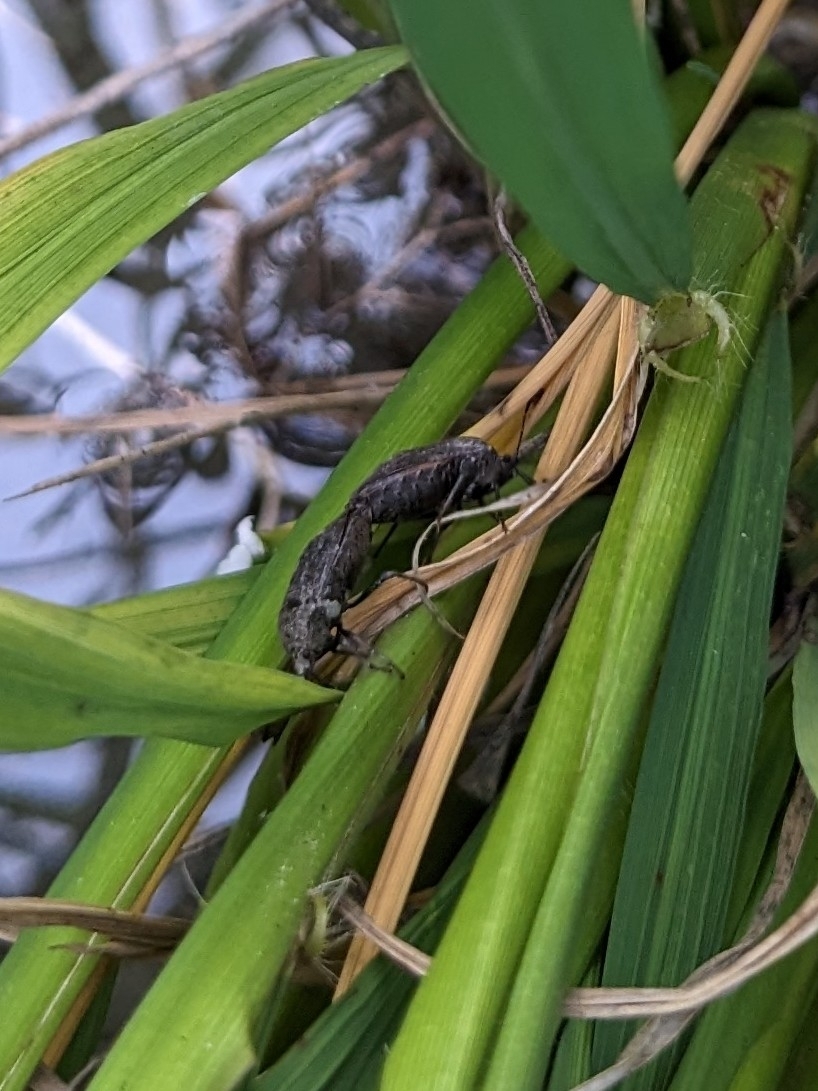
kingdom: Animalia
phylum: Arthropoda
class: Insecta
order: Hemiptera
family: Pentatomidae
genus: Scotinophara
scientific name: Scotinophara lurida
